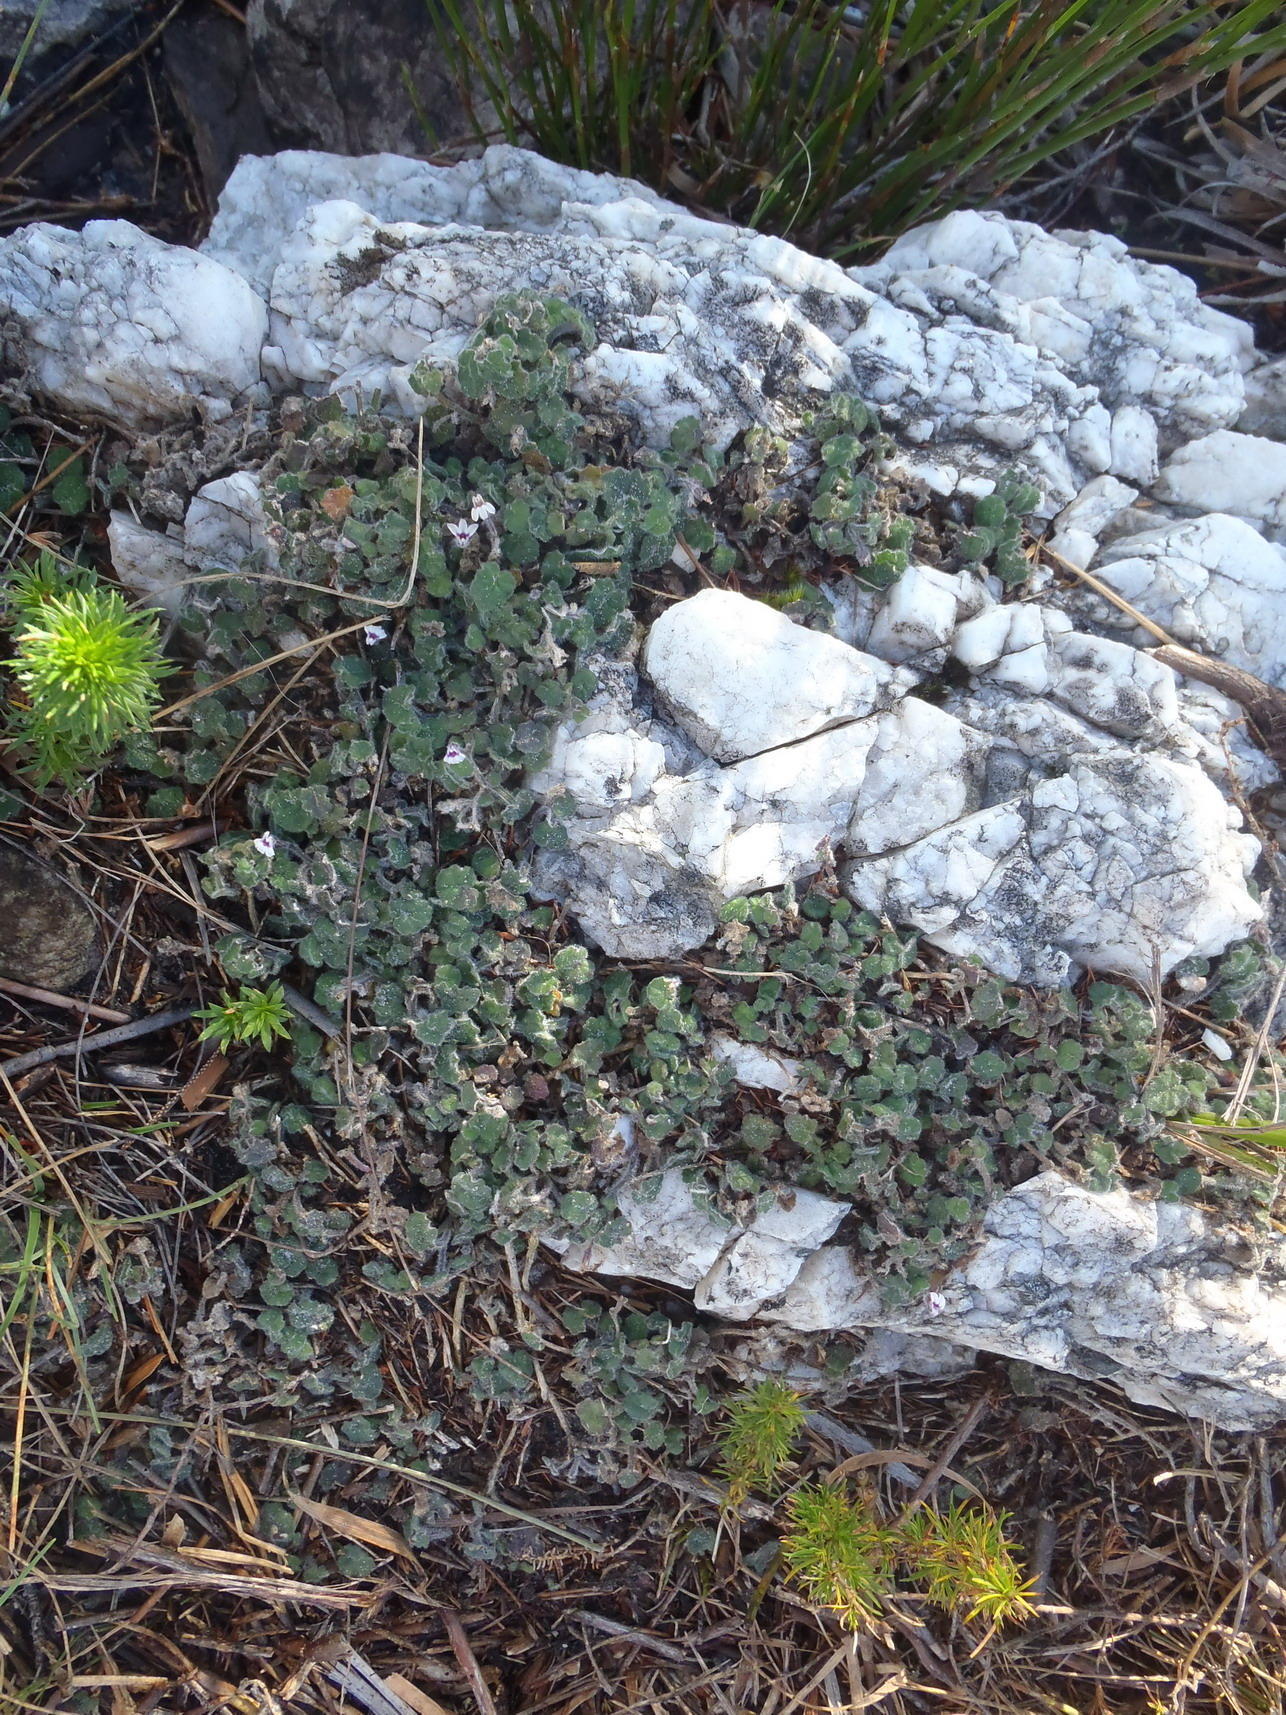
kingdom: Plantae
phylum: Tracheophyta
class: Magnoliopsida
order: Asterales
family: Campanulaceae
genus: Lobelia
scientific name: Lobelia ardisiandroides
